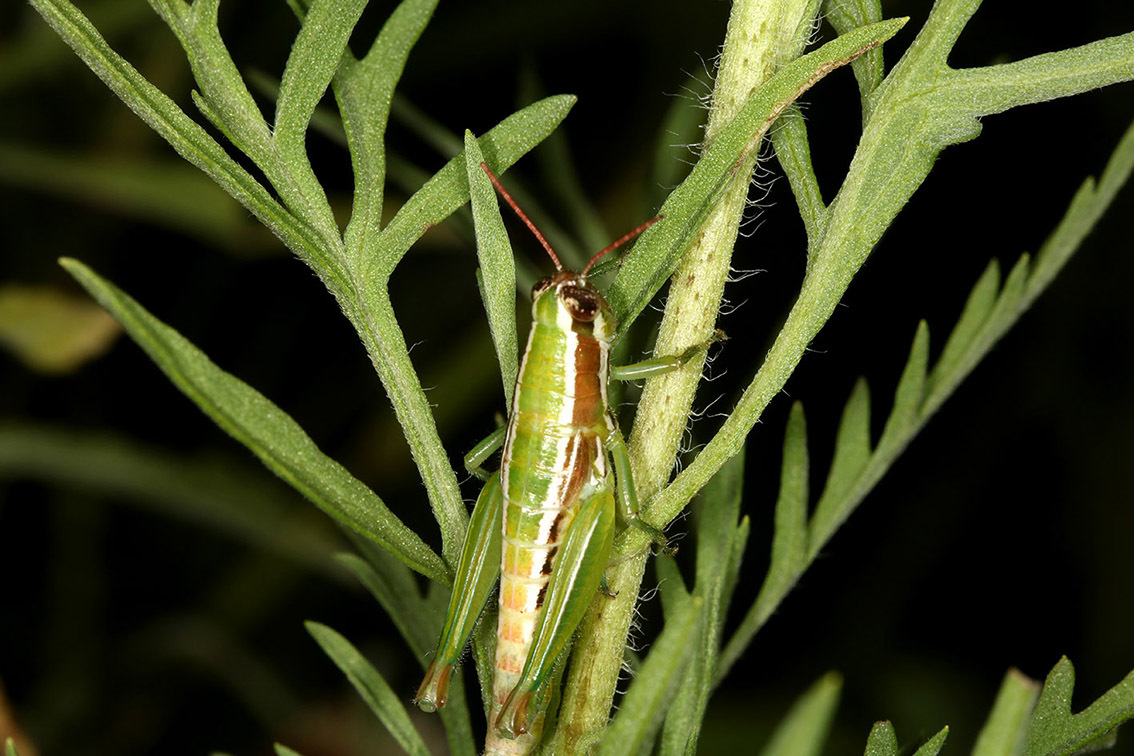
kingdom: Animalia
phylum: Arthropoda
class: Insecta
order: Orthoptera
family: Acrididae
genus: Neopedies
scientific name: Neopedies brunneri
